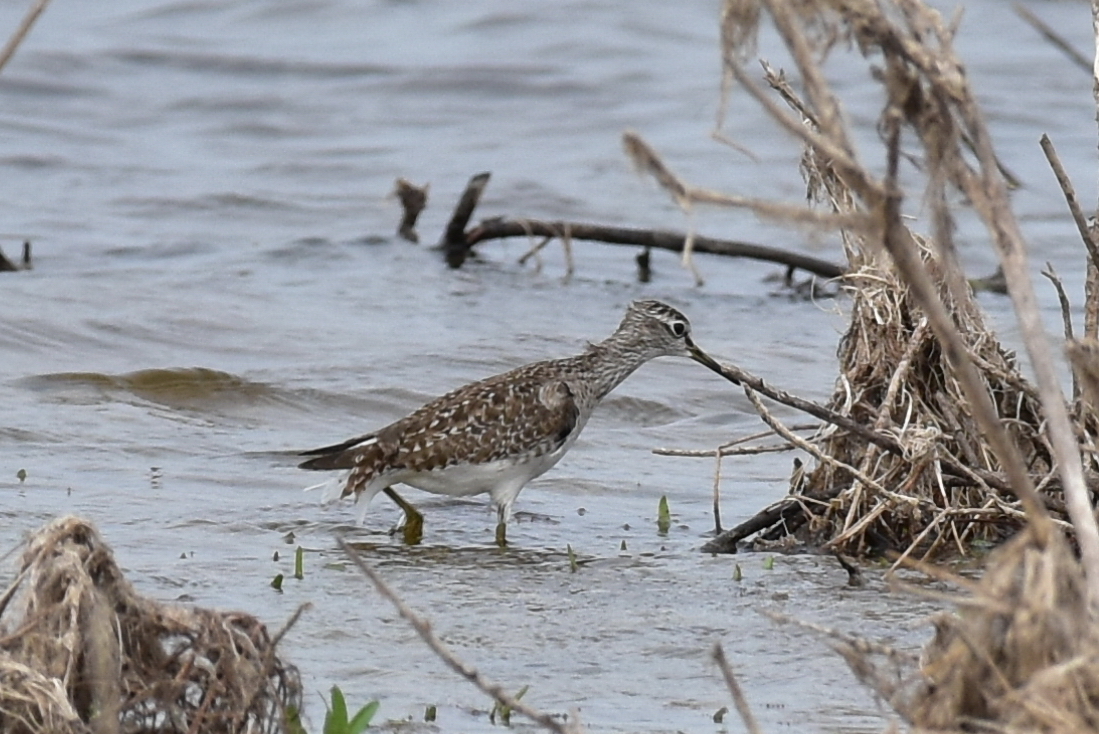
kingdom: Animalia
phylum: Chordata
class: Aves
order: Charadriiformes
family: Scolopacidae
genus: Tringa
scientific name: Tringa glareola
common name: Wood sandpiper
